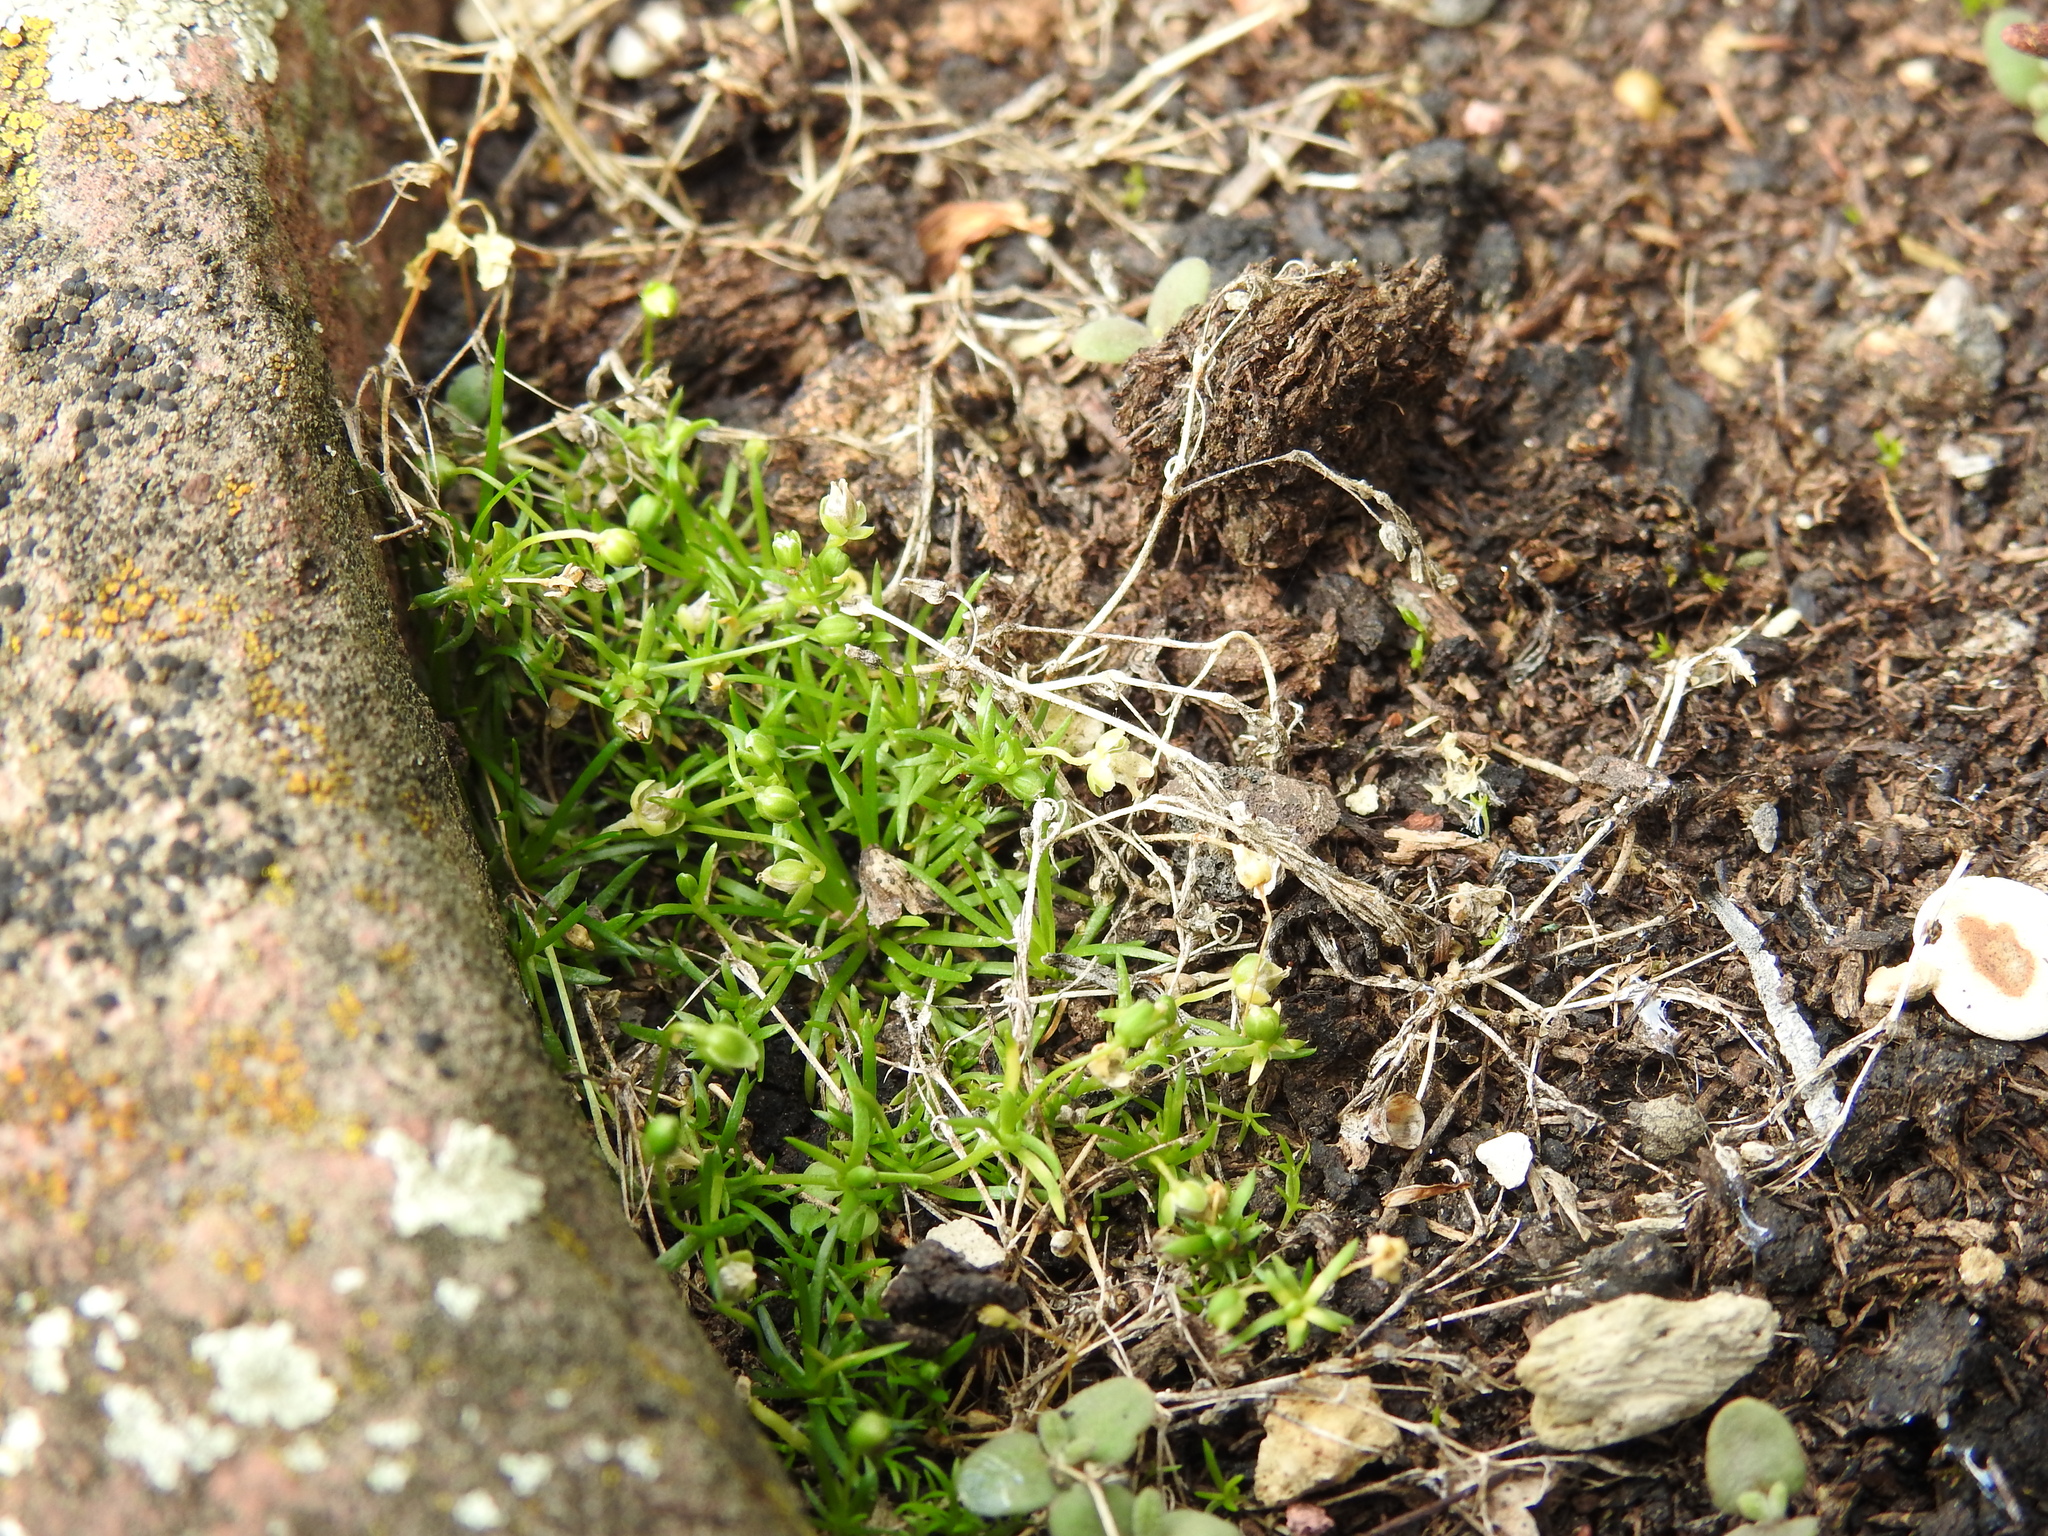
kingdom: Plantae
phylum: Tracheophyta
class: Magnoliopsida
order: Caryophyllales
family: Caryophyllaceae
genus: Sagina
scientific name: Sagina procumbens
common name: Procumbent pearlwort
